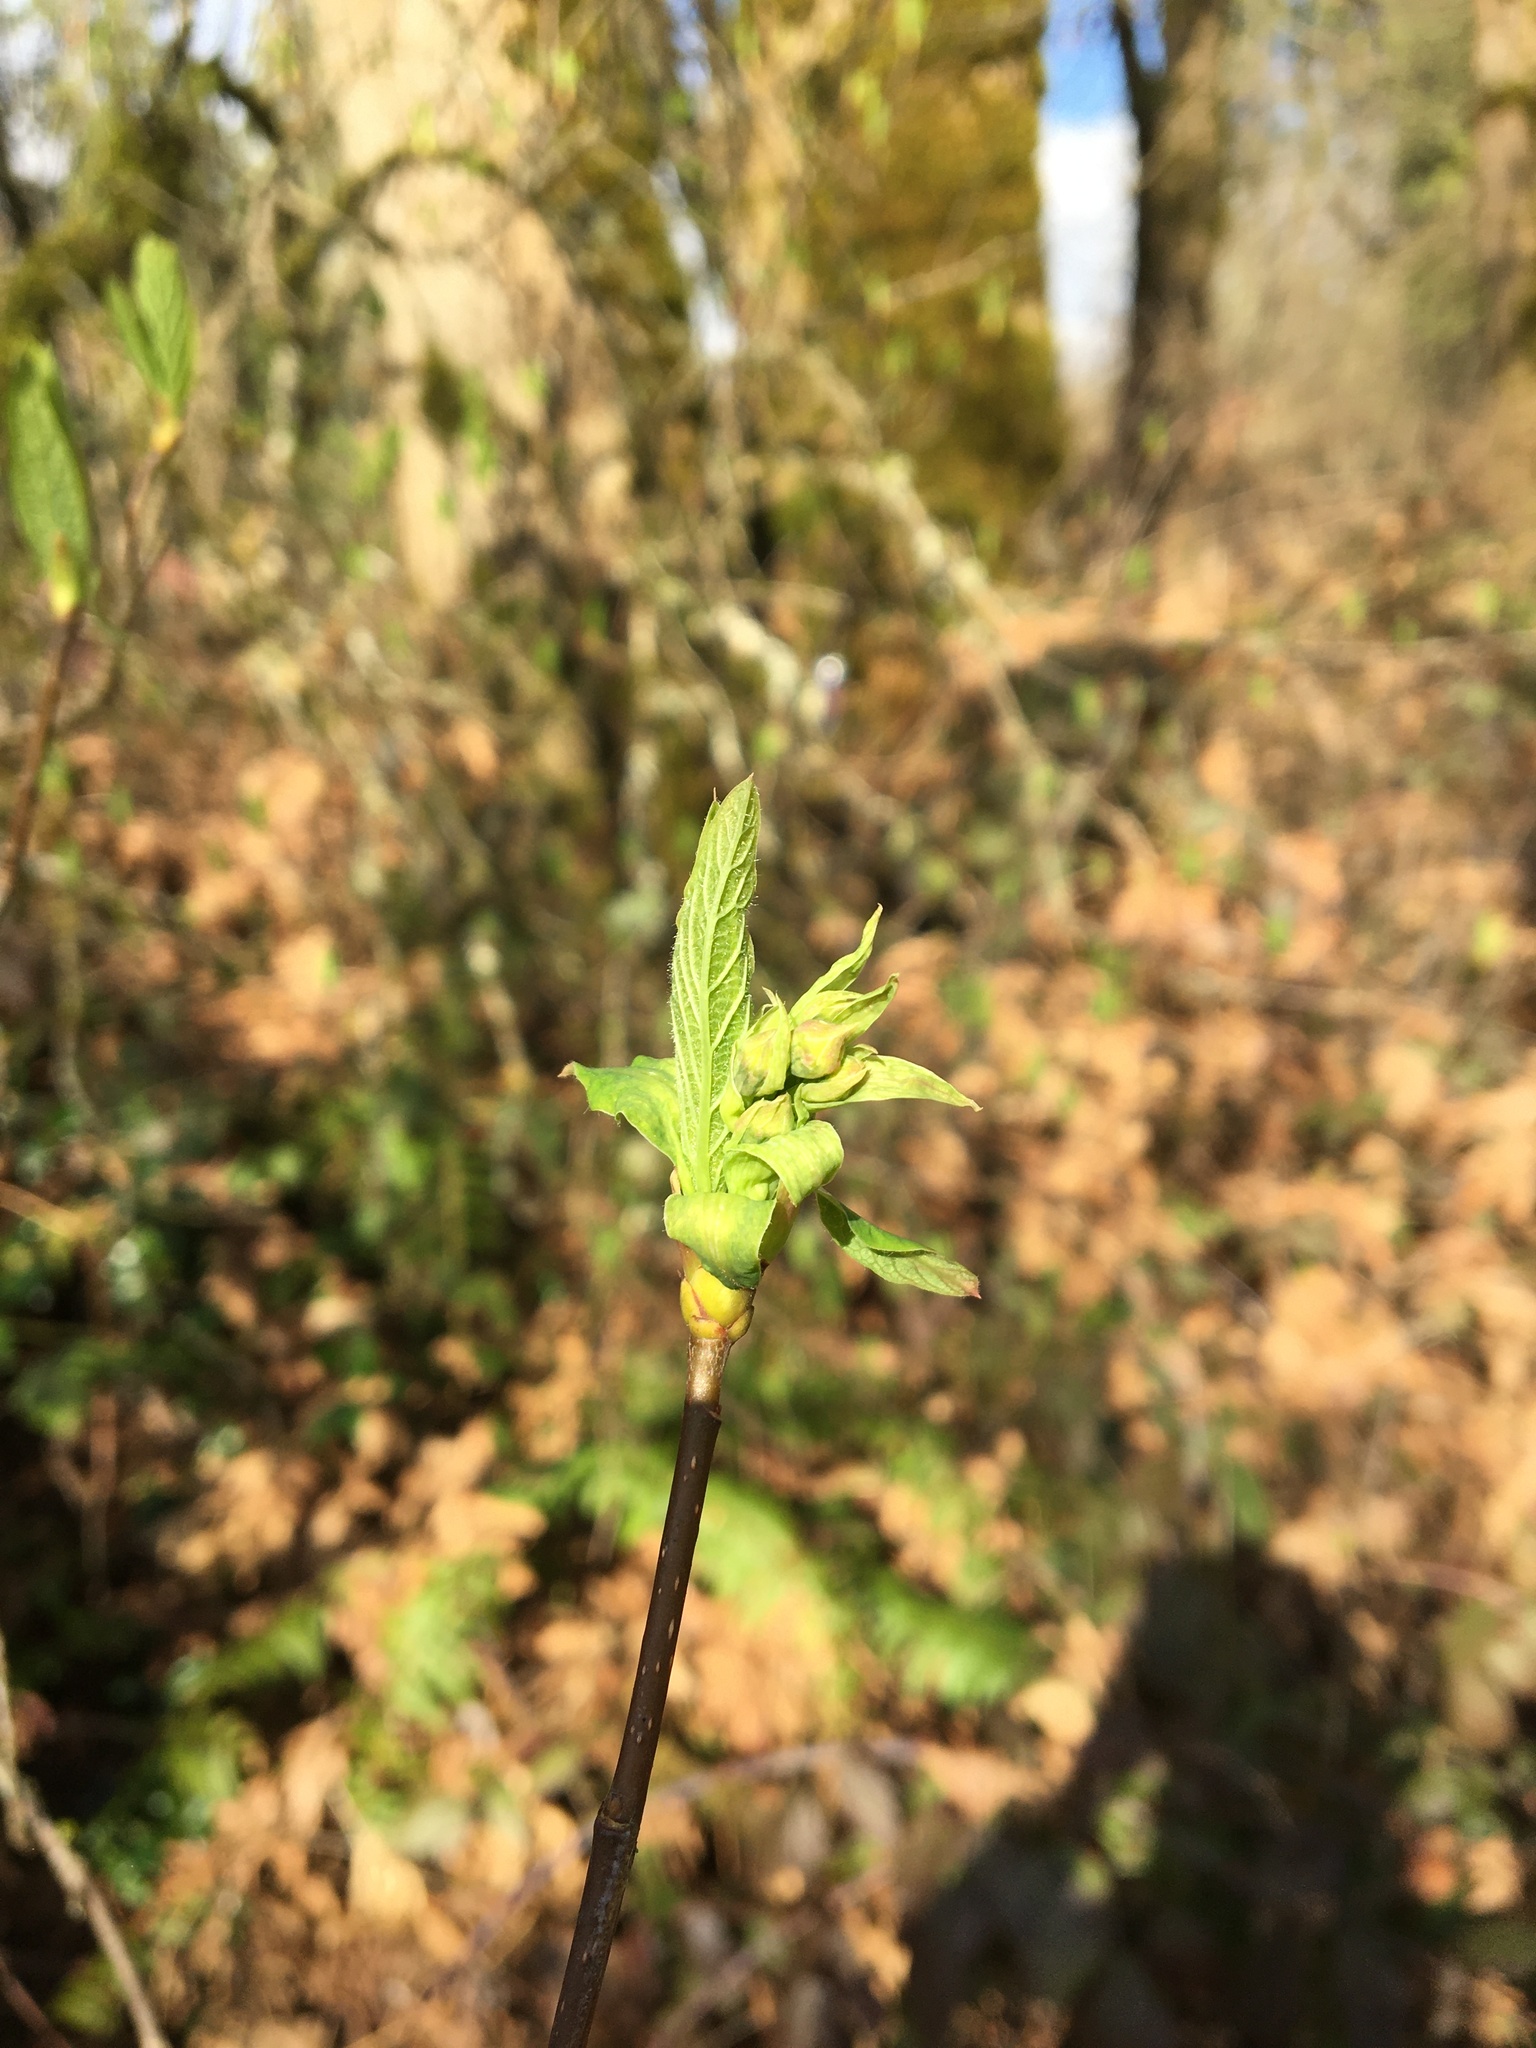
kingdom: Plantae
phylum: Tracheophyta
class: Magnoliopsida
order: Rosales
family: Rosaceae
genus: Oemleria
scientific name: Oemleria cerasiformis
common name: Osoberry
